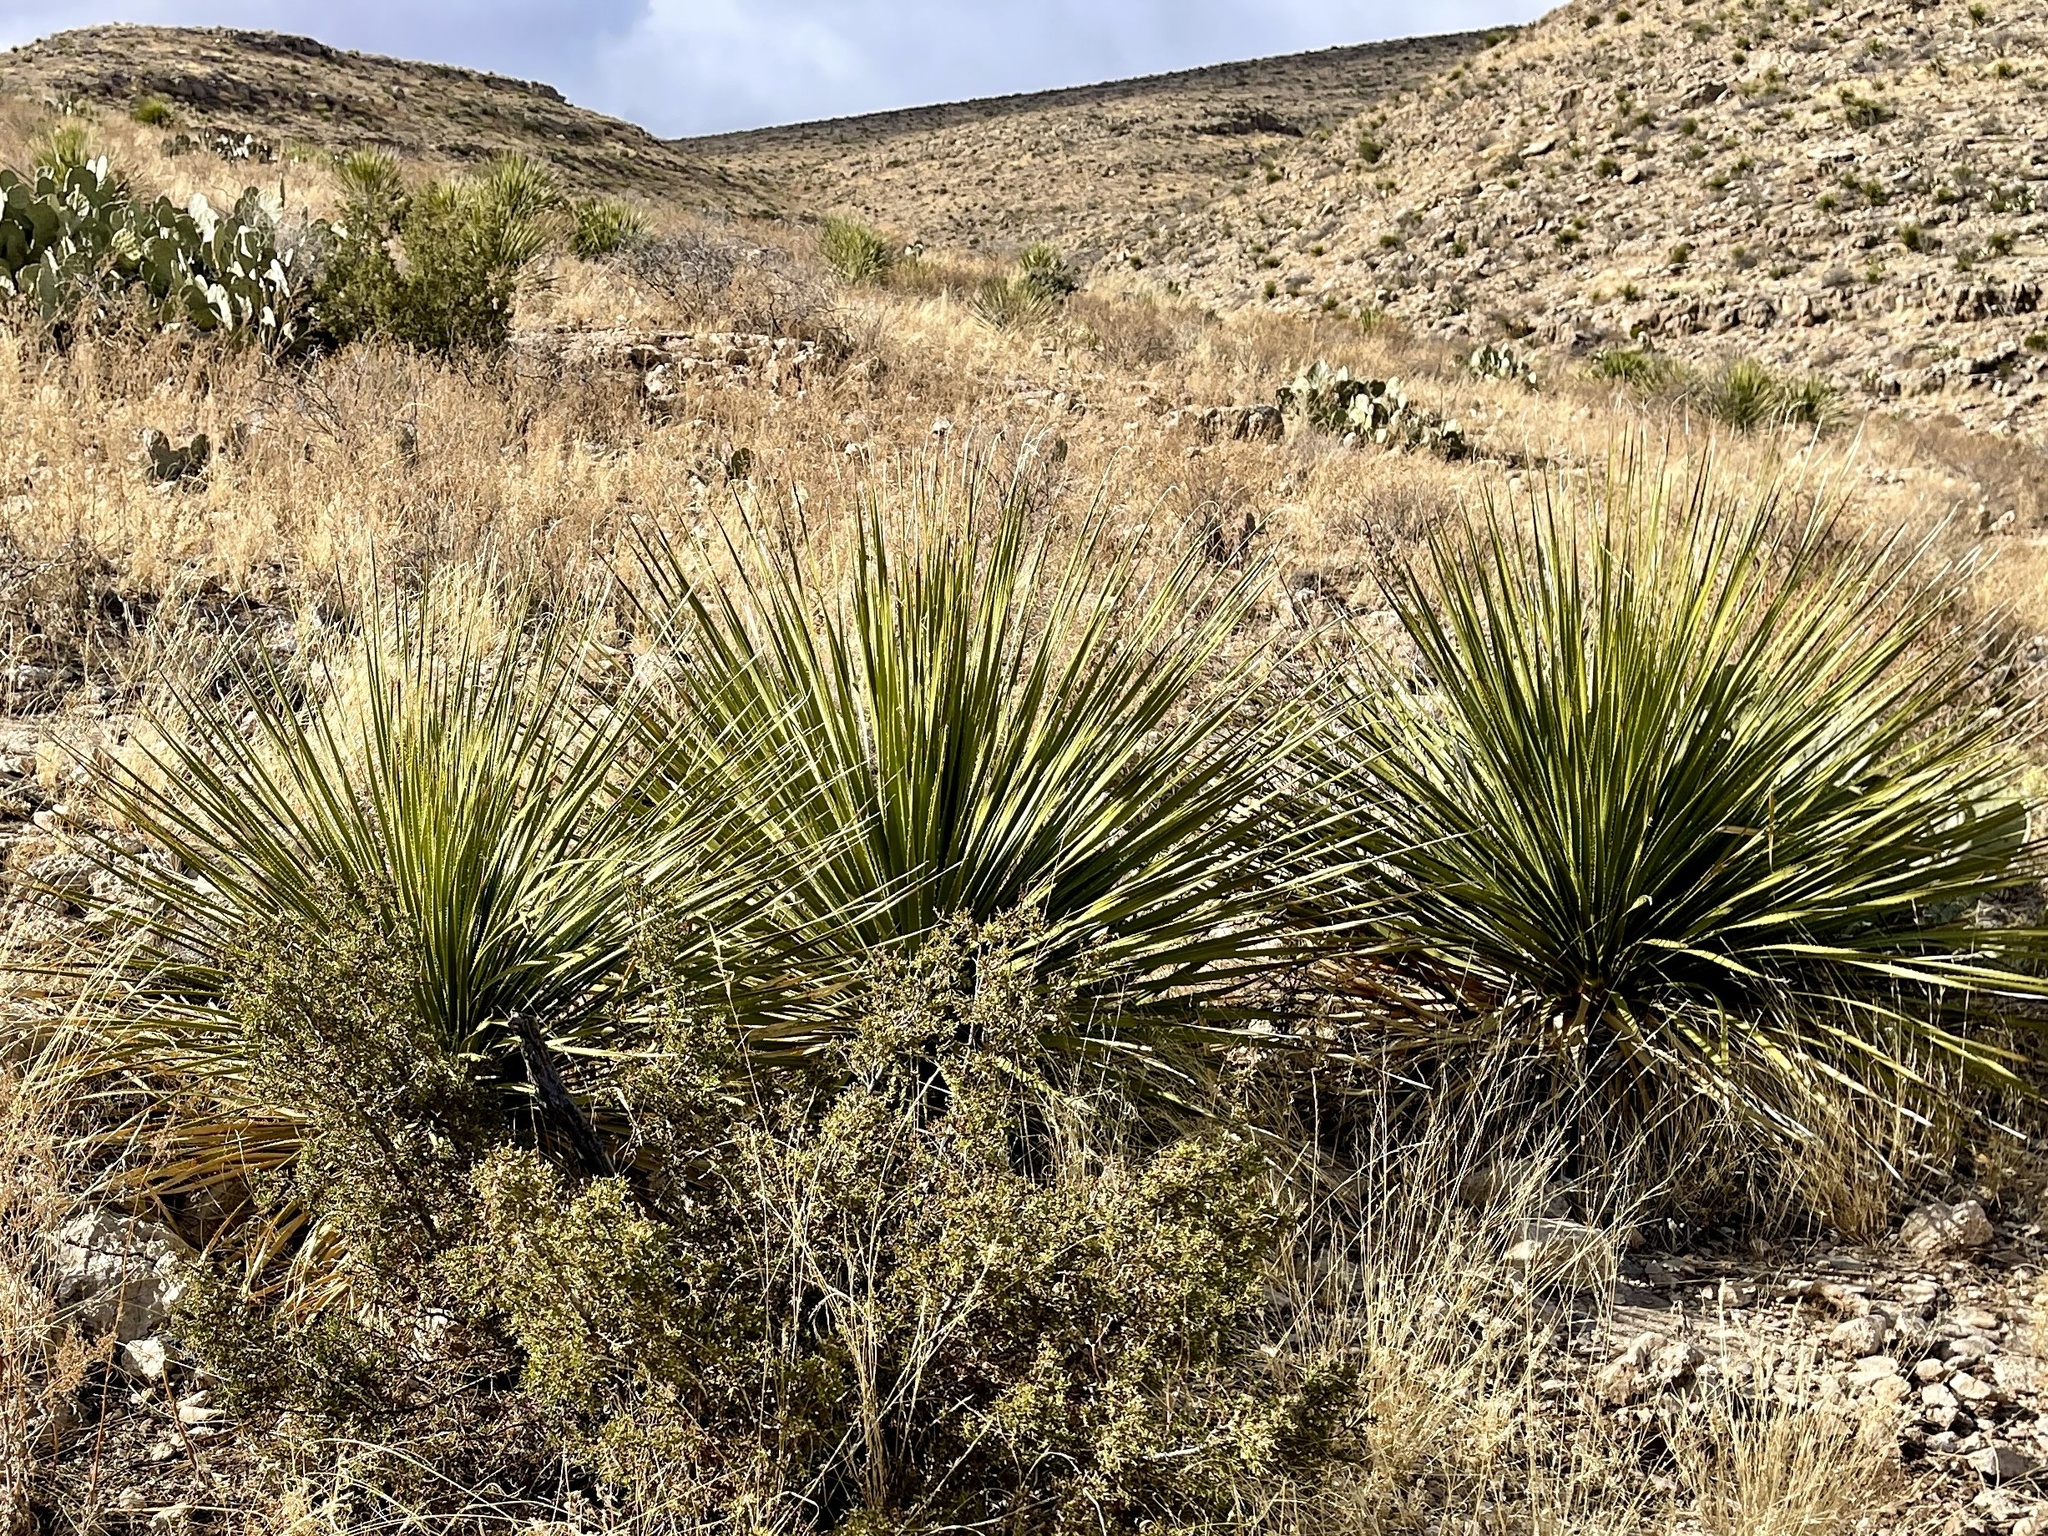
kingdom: Plantae
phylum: Tracheophyta
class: Liliopsida
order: Asparagales
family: Asparagaceae
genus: Dasylirion
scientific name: Dasylirion leiophyllum
